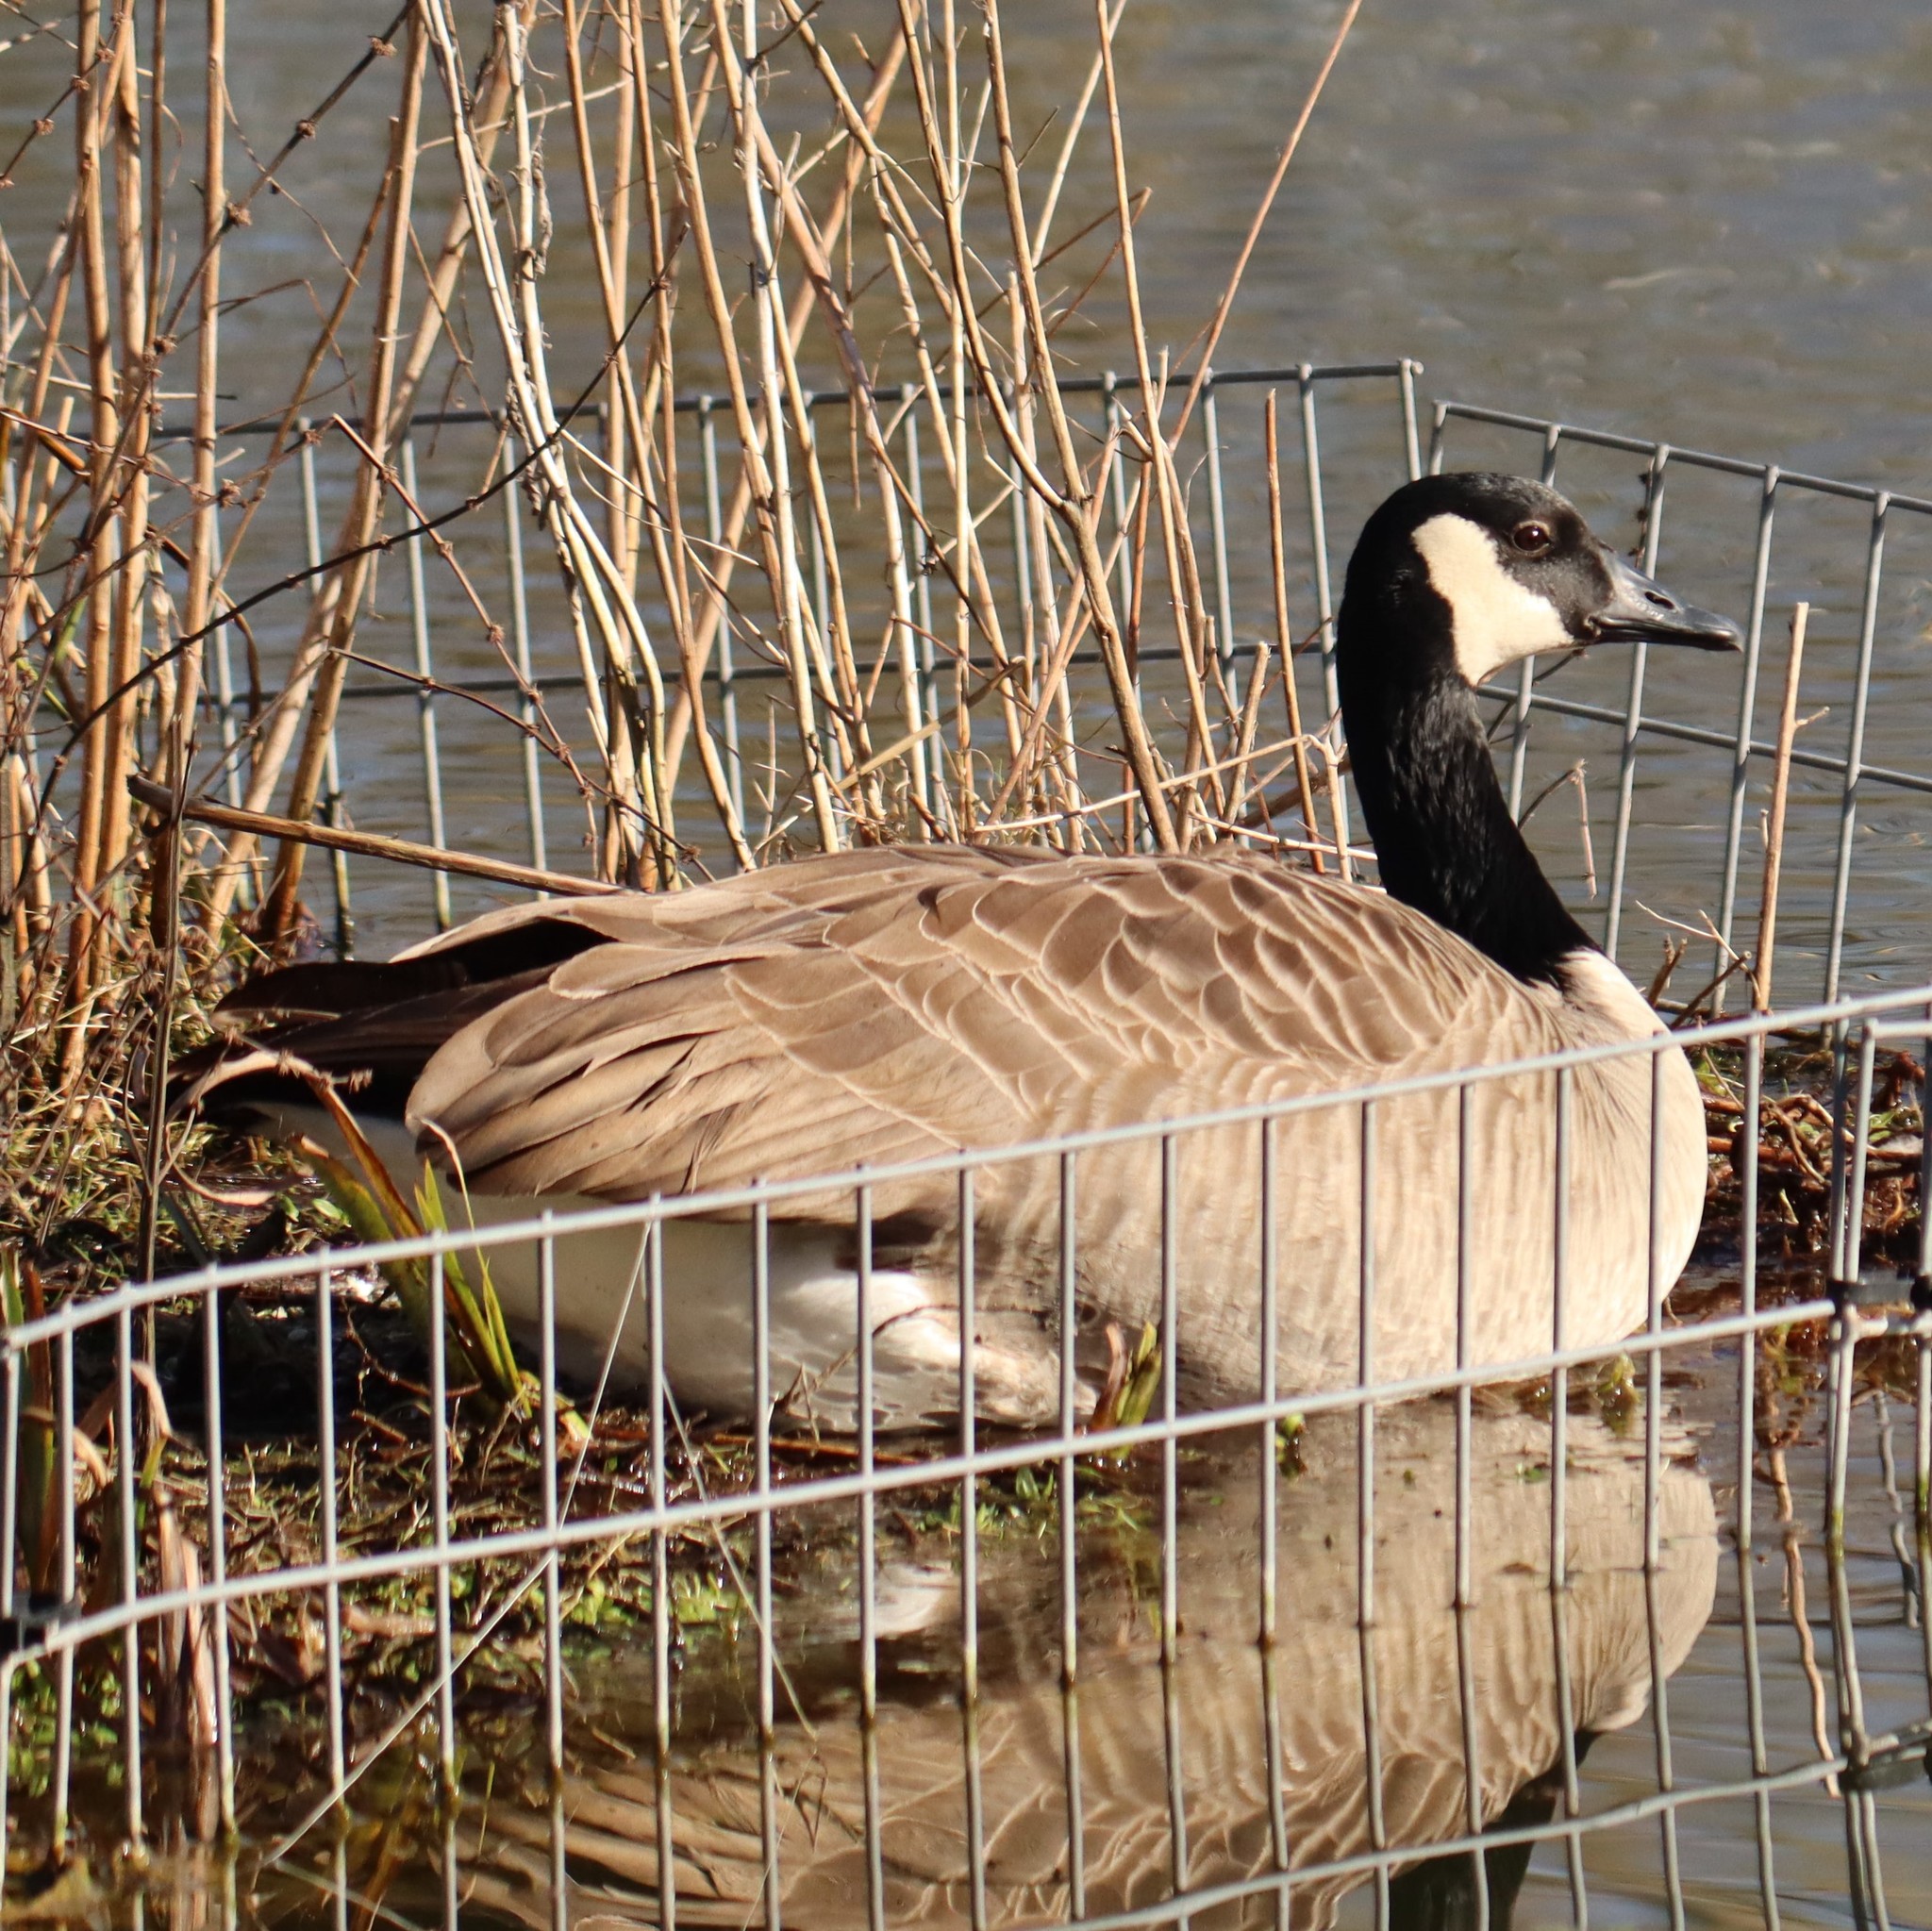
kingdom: Animalia
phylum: Chordata
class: Aves
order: Anseriformes
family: Anatidae
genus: Branta
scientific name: Branta canadensis
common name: Canada goose
